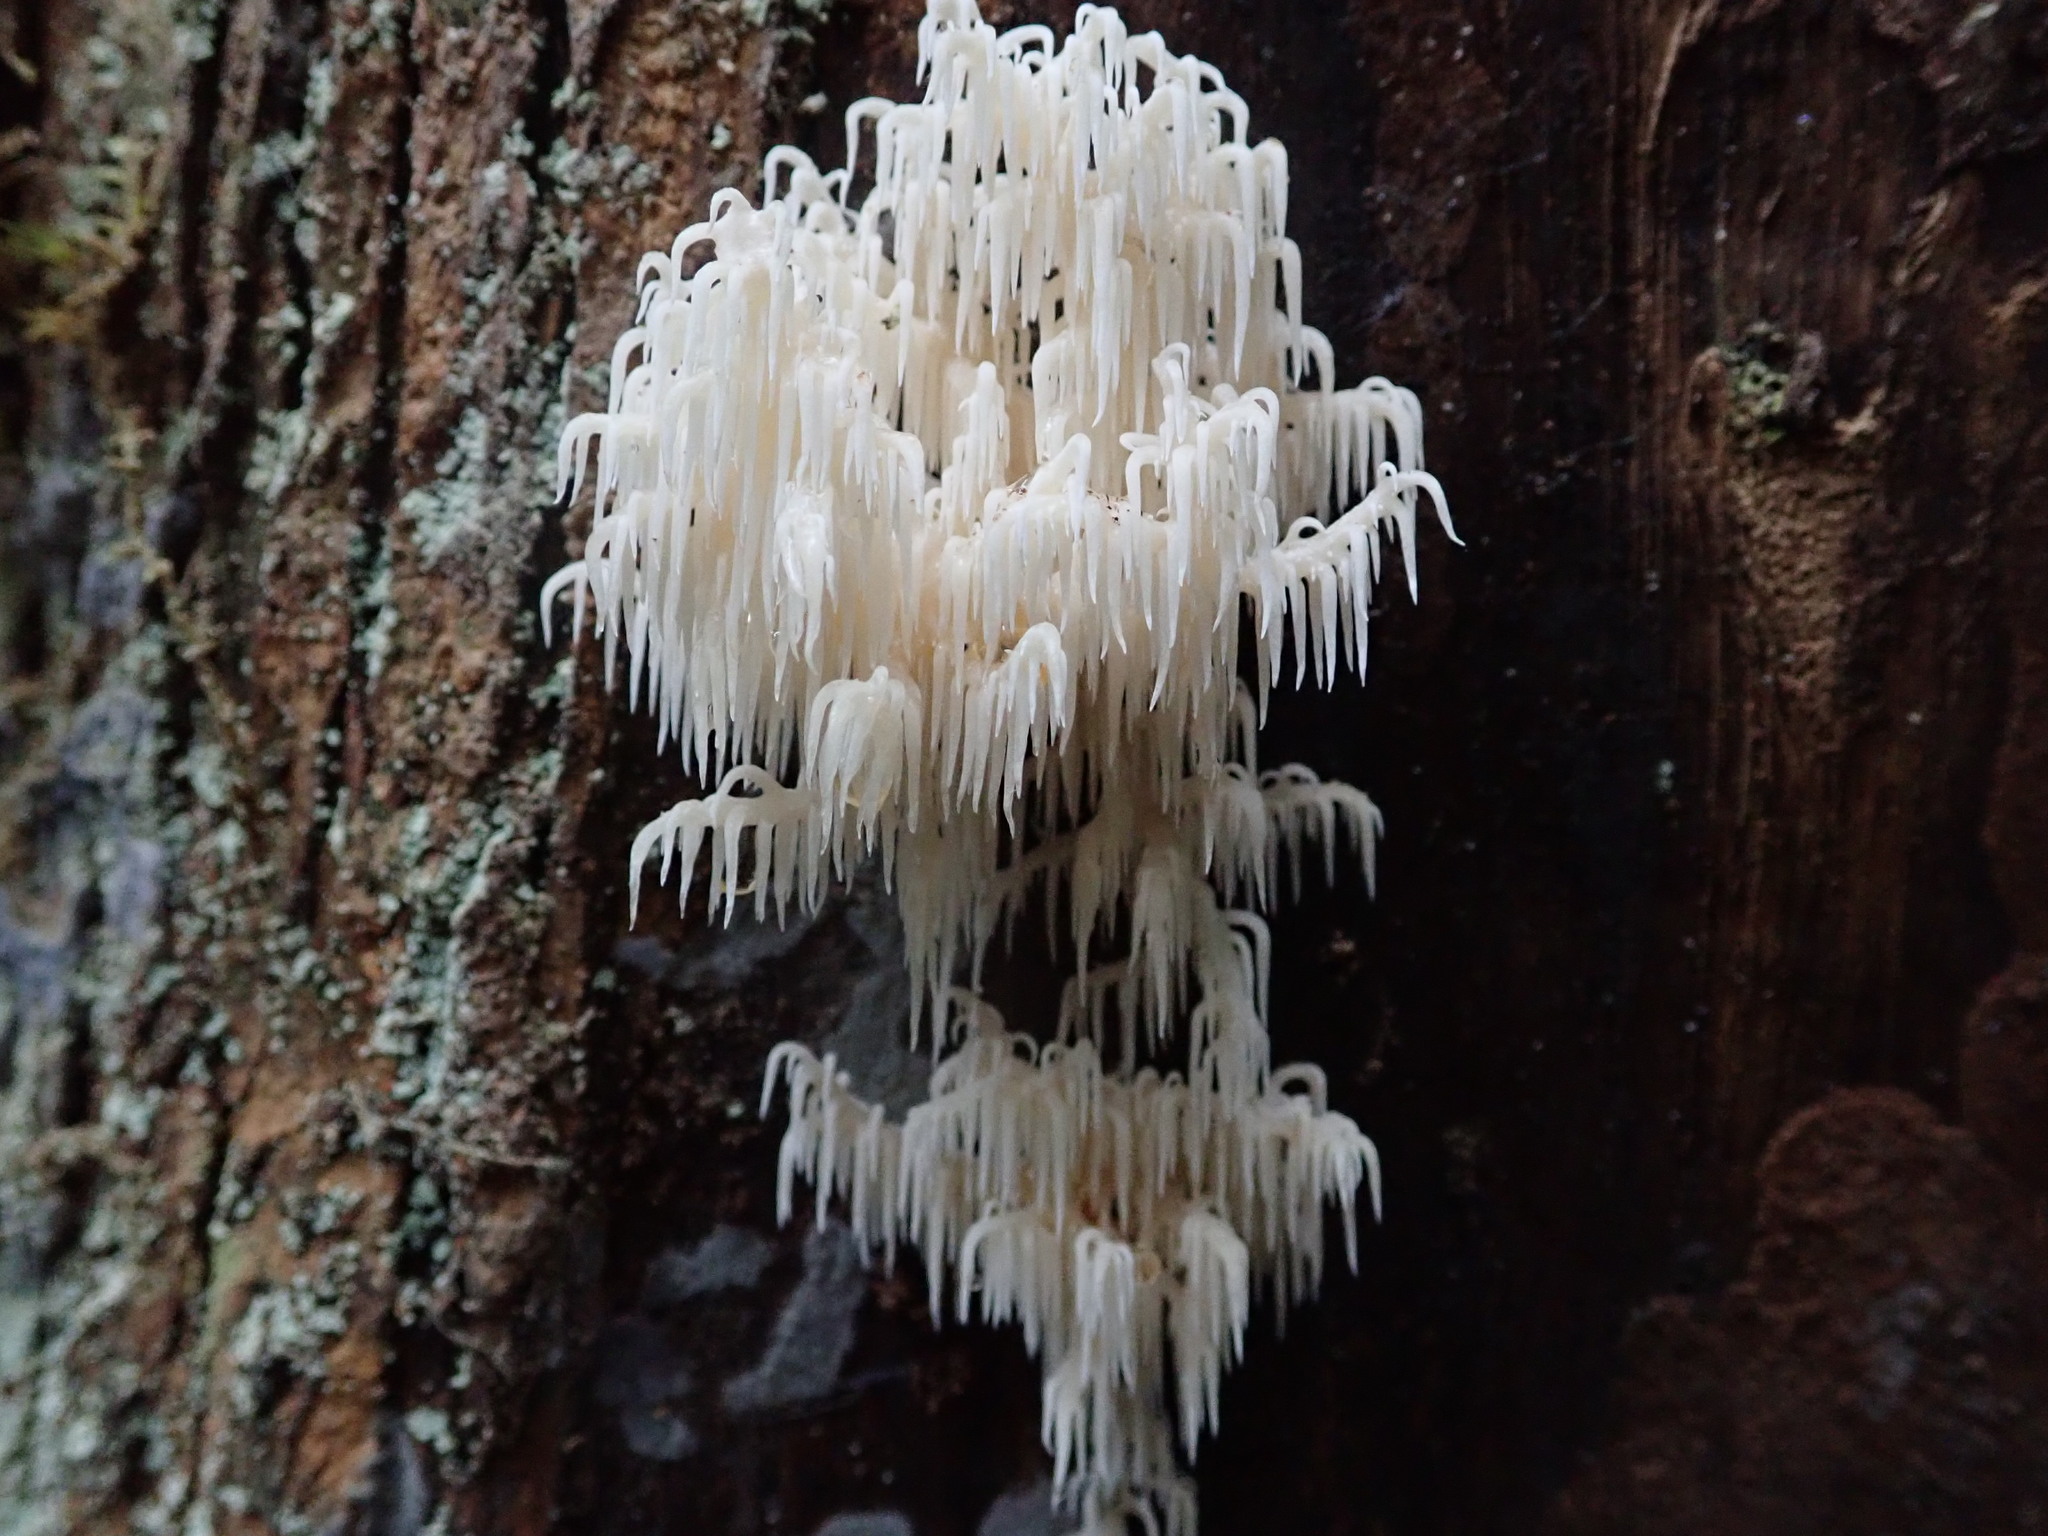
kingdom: Fungi
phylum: Basidiomycota
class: Agaricomycetes
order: Russulales
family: Hericiaceae
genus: Hericium
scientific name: Hericium coralloides
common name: Coral tooth
